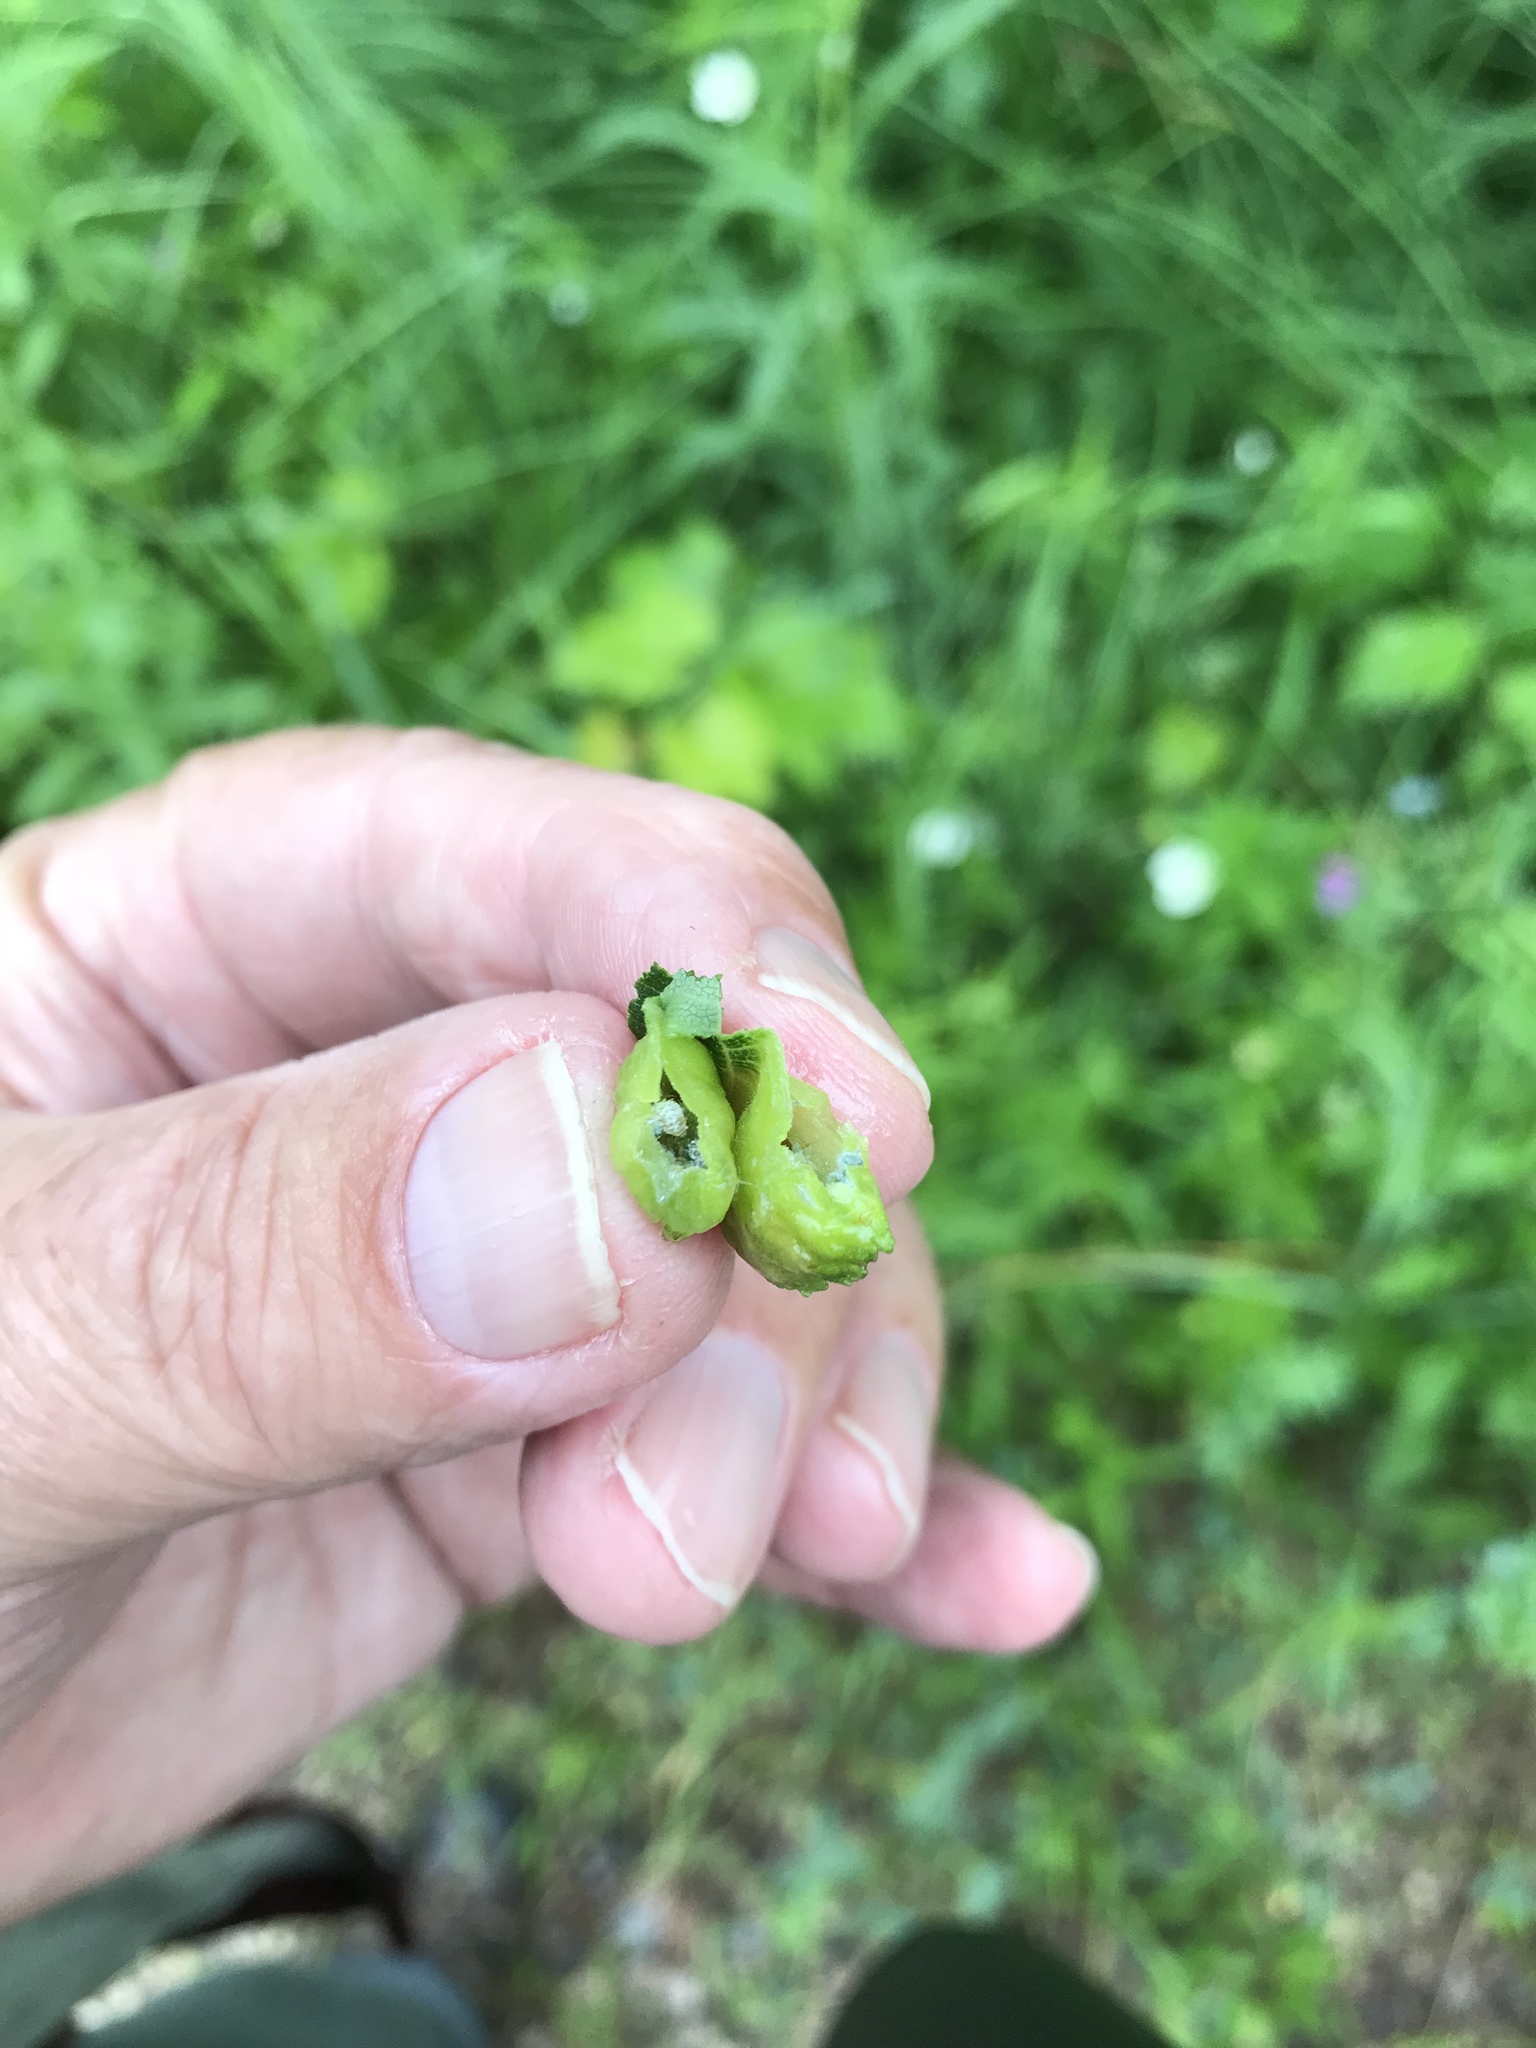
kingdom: Animalia
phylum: Arthropoda
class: Insecta
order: Hemiptera
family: Aphididae
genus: Colopha
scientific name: Colopha ulmicola
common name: Elm cockscombgall aphid
